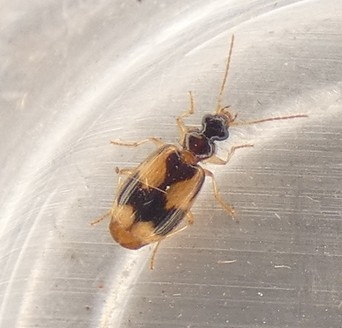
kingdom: Animalia
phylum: Arthropoda
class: Insecta
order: Coleoptera
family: Carabidae
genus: Lebia
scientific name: Lebia esurialis
